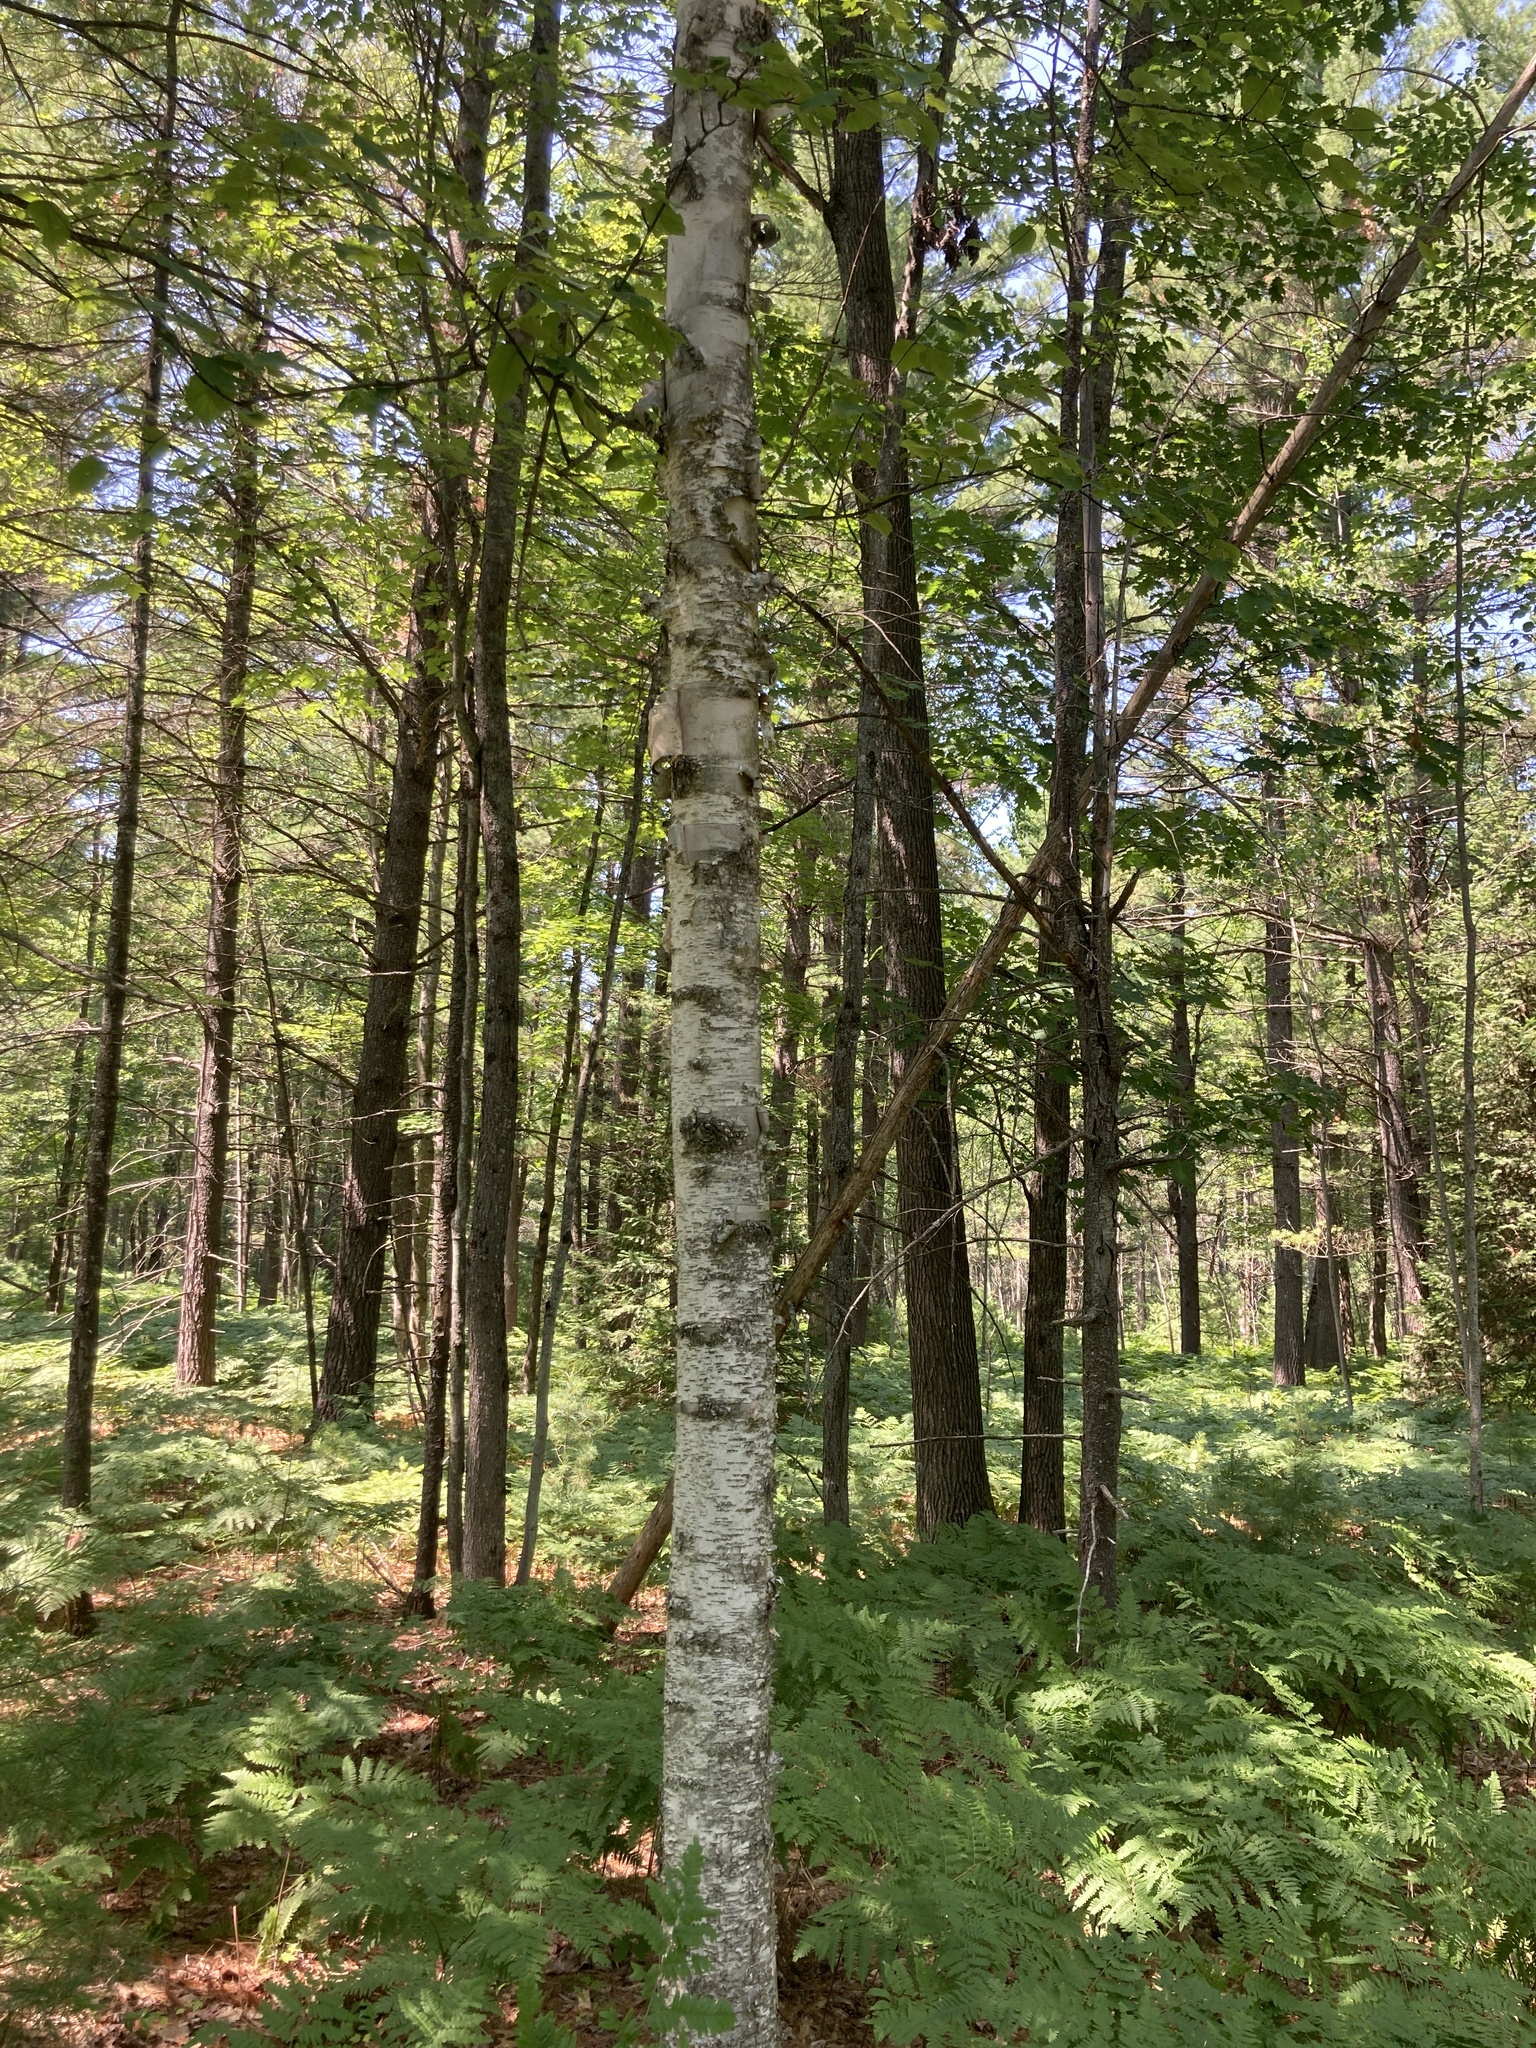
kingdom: Plantae
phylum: Tracheophyta
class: Magnoliopsida
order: Fagales
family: Betulaceae
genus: Betula
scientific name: Betula papyrifera
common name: Paper birch
